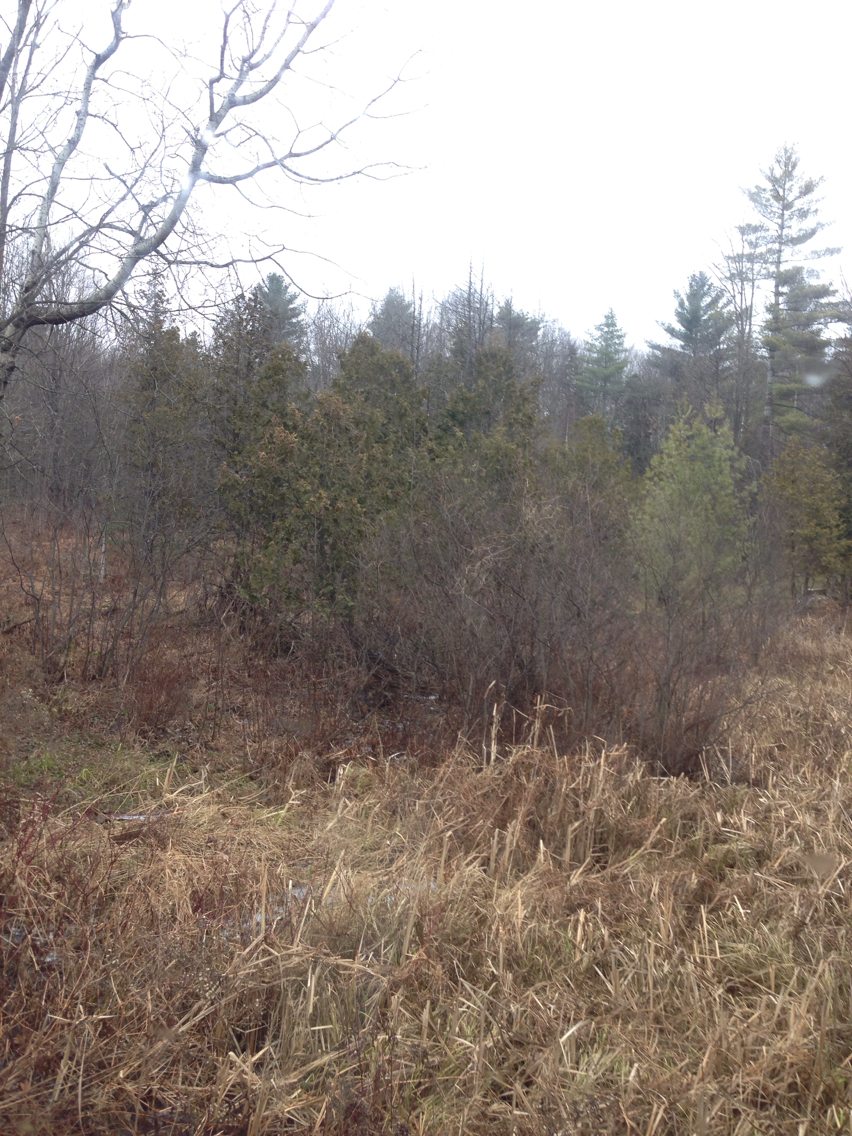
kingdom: Plantae
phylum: Tracheophyta
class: Pinopsida
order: Pinales
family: Cupressaceae
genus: Thuja
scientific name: Thuja occidentalis
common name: Northern white-cedar
